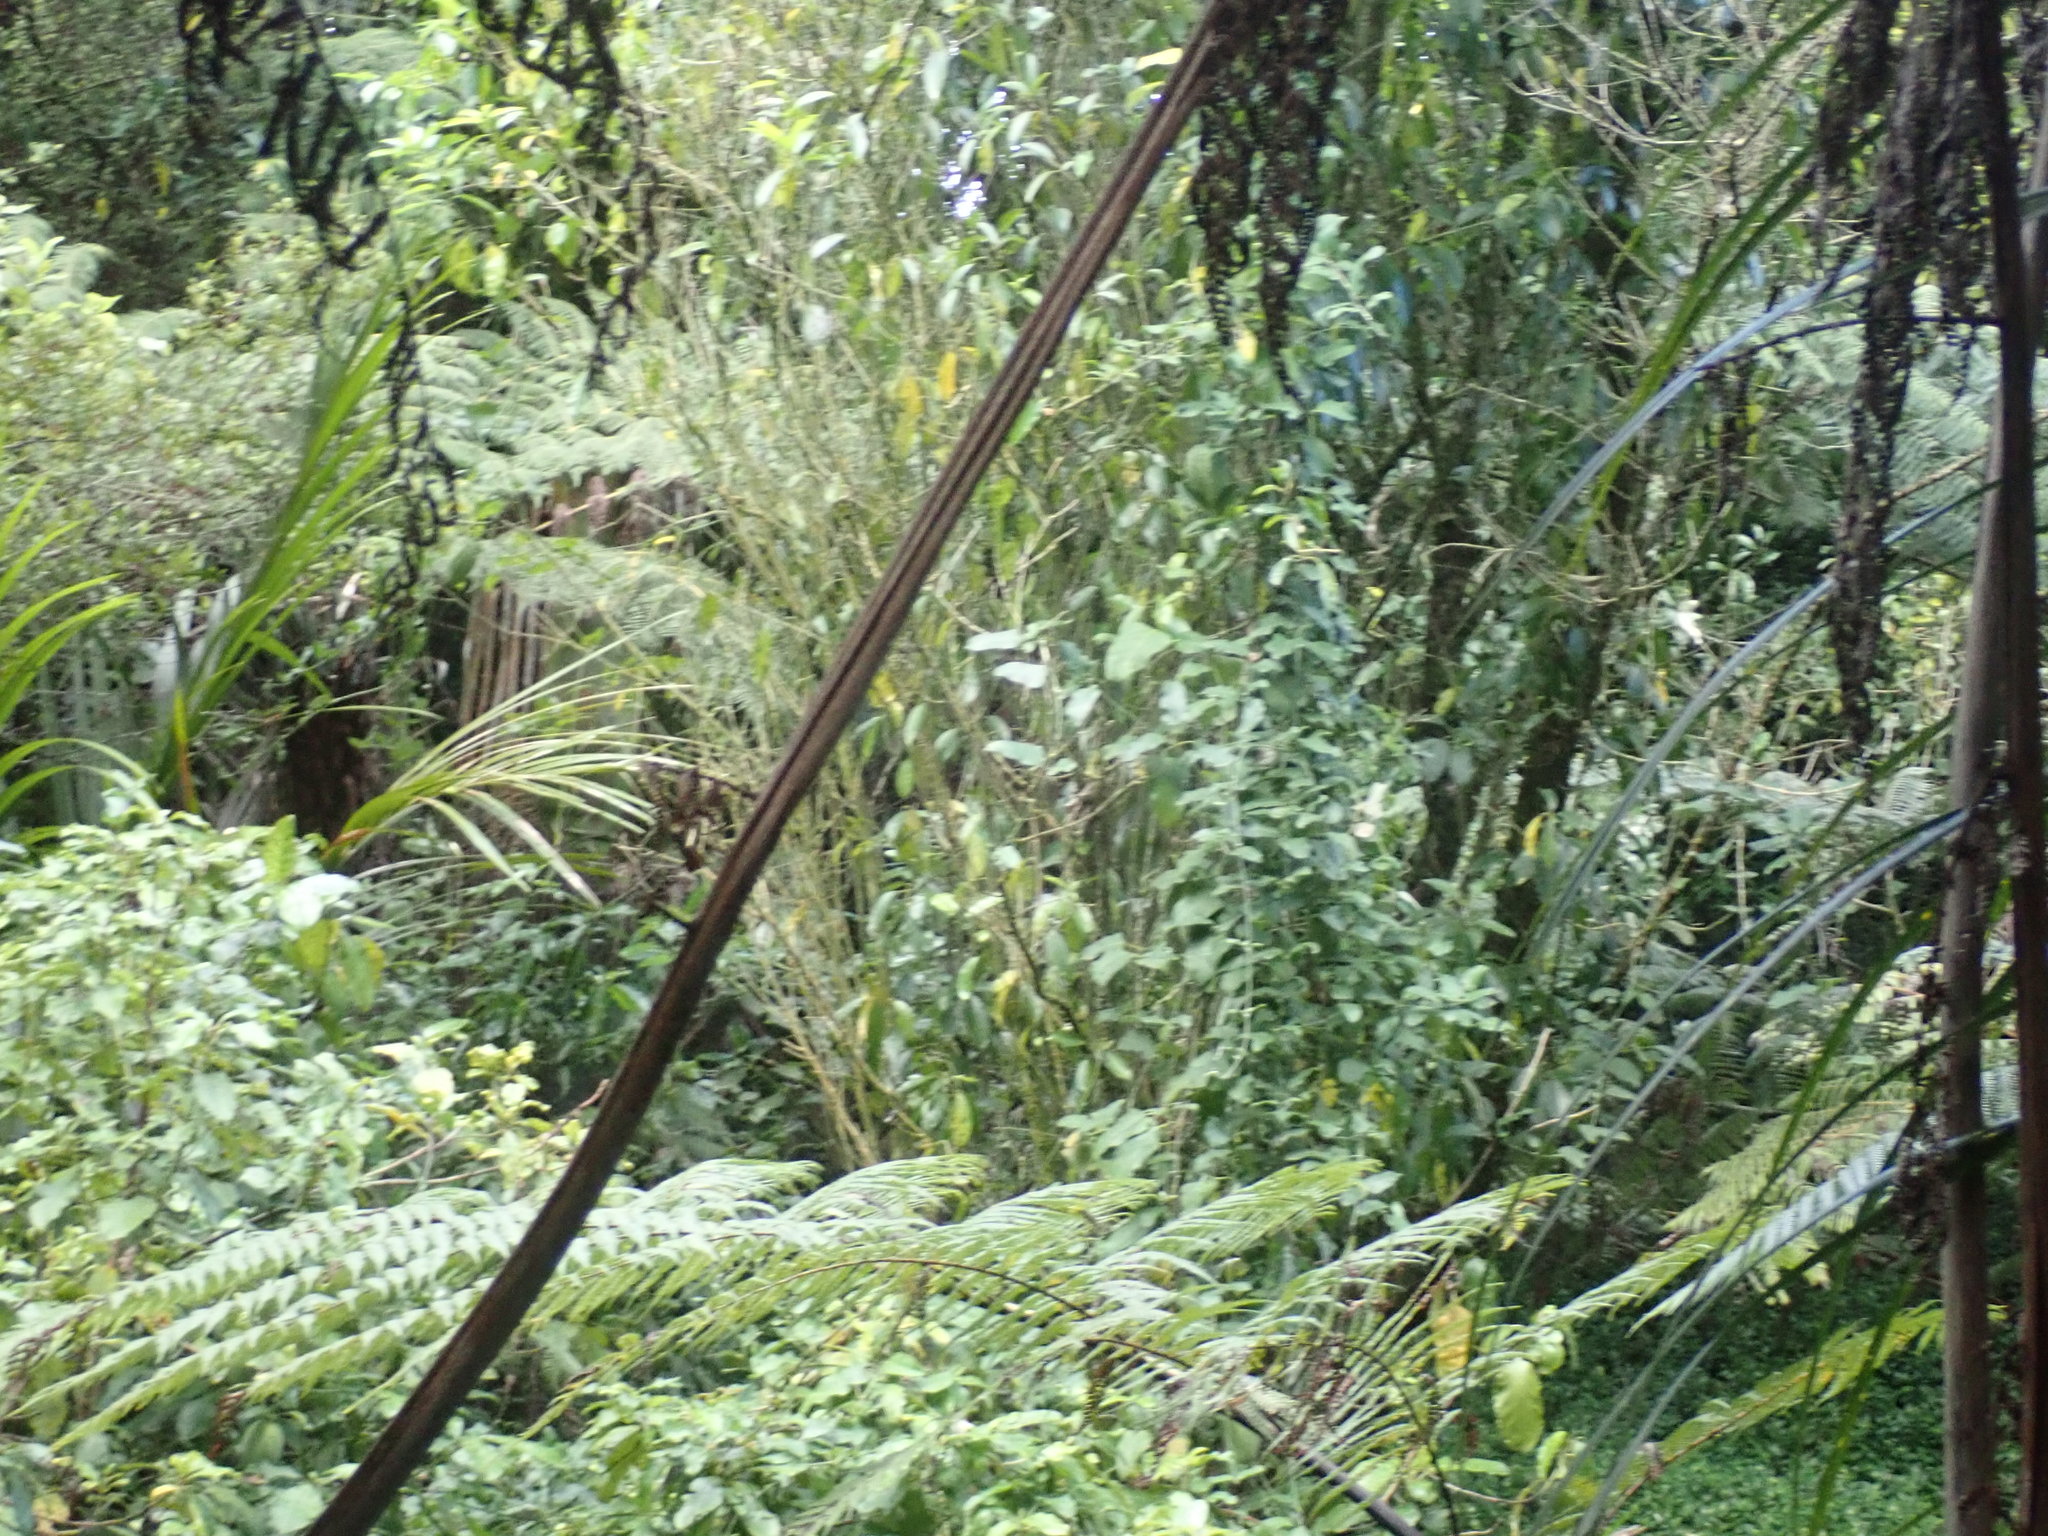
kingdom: Plantae
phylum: Tracheophyta
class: Magnoliopsida
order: Gentianales
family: Apocynaceae
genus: Araujia
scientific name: Araujia sericifera
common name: White bladderflower
